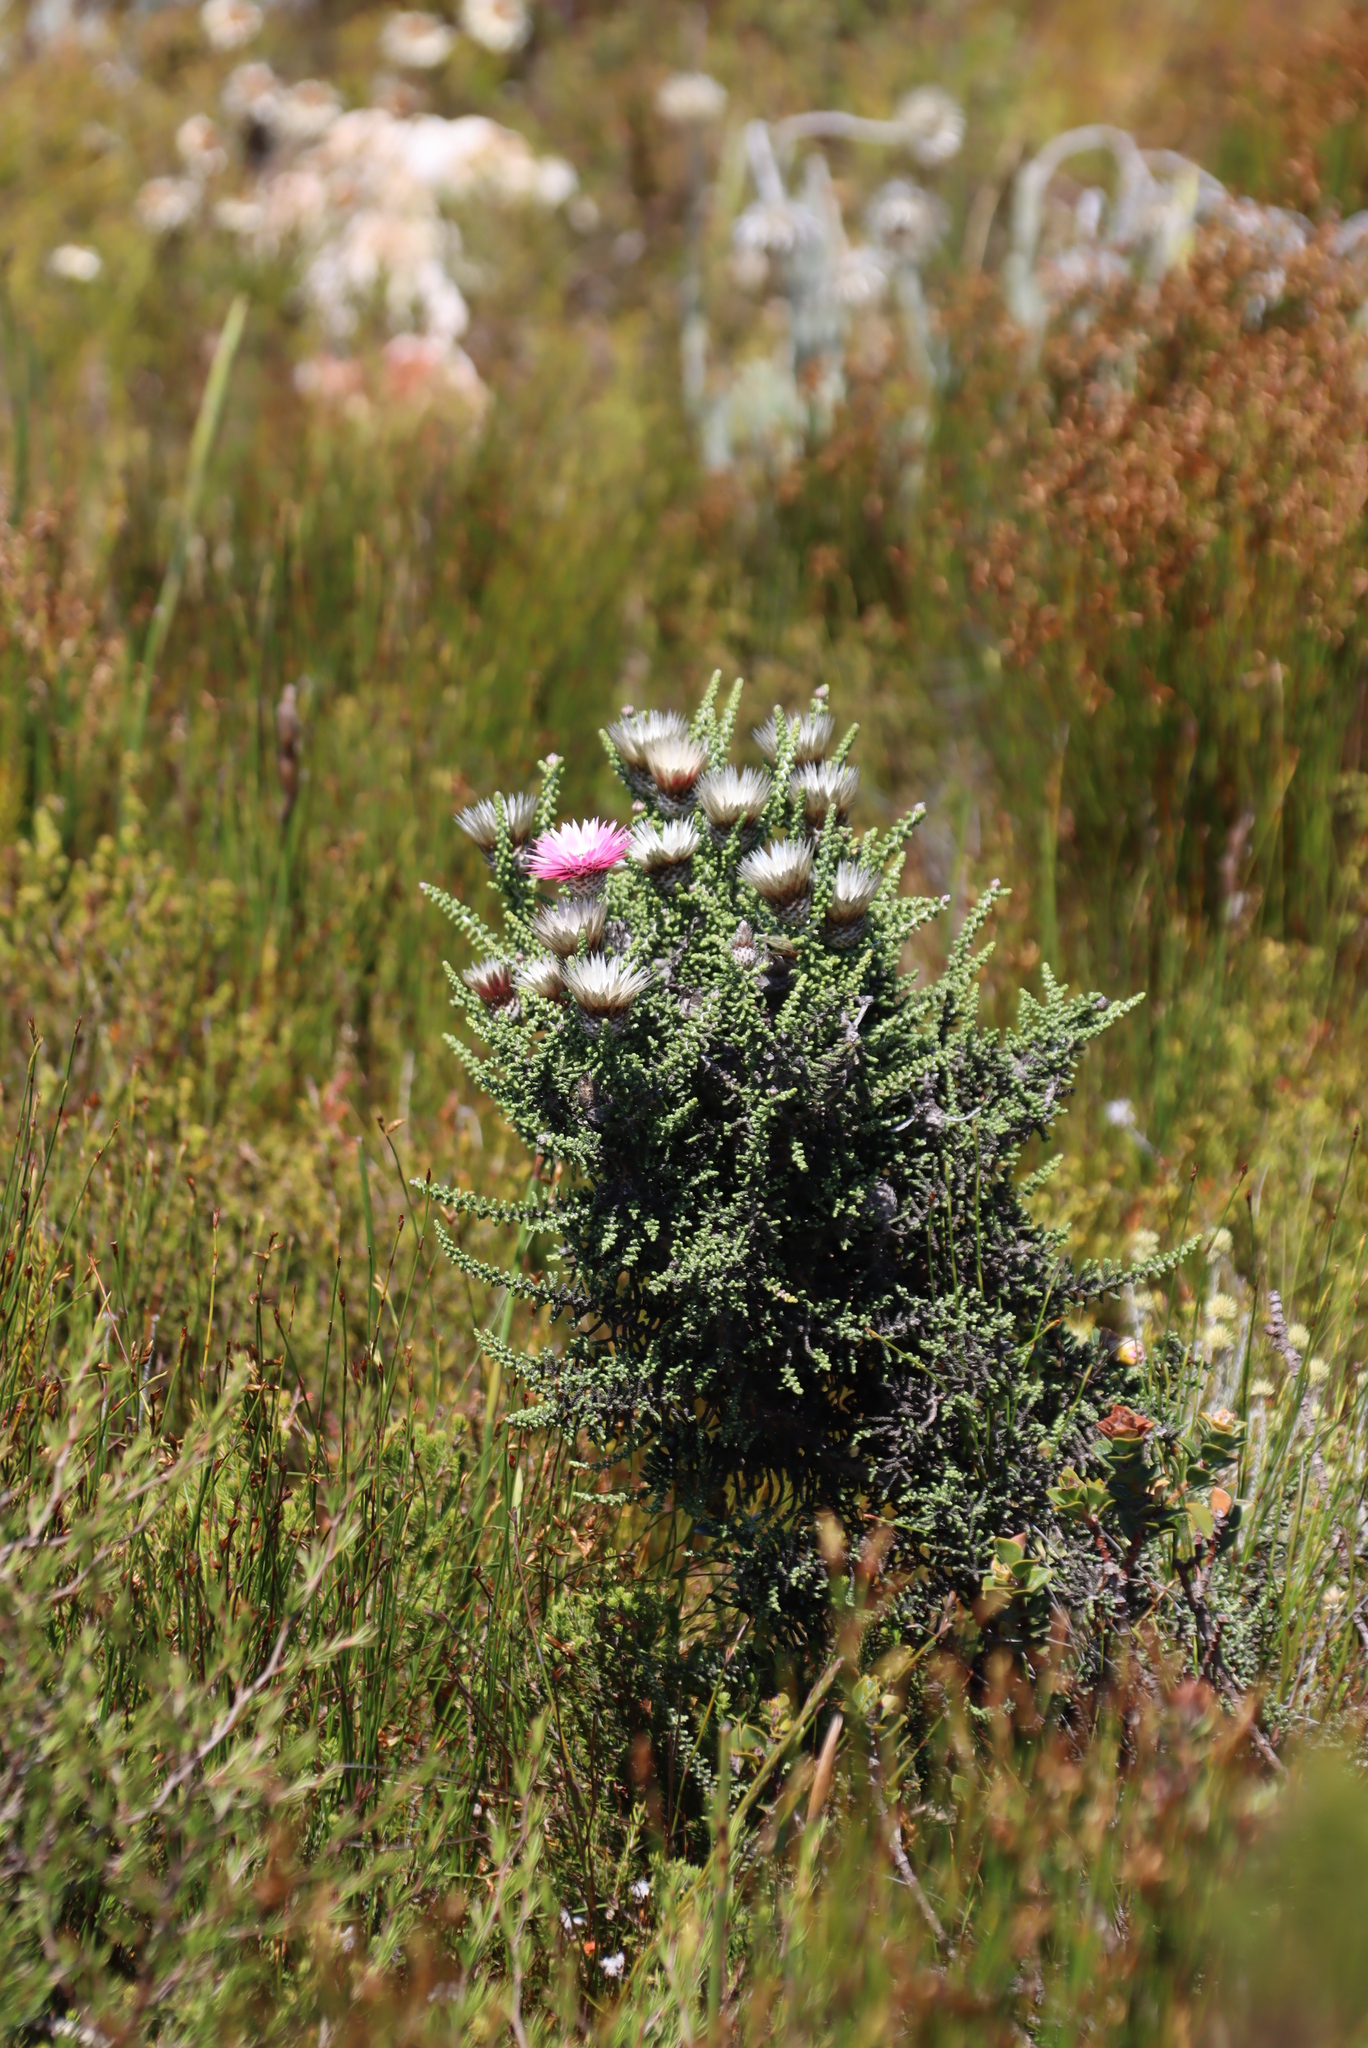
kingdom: Plantae
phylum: Tracheophyta
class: Magnoliopsida
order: Asterales
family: Asteraceae
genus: Phaenocoma
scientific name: Phaenocoma prolifera
